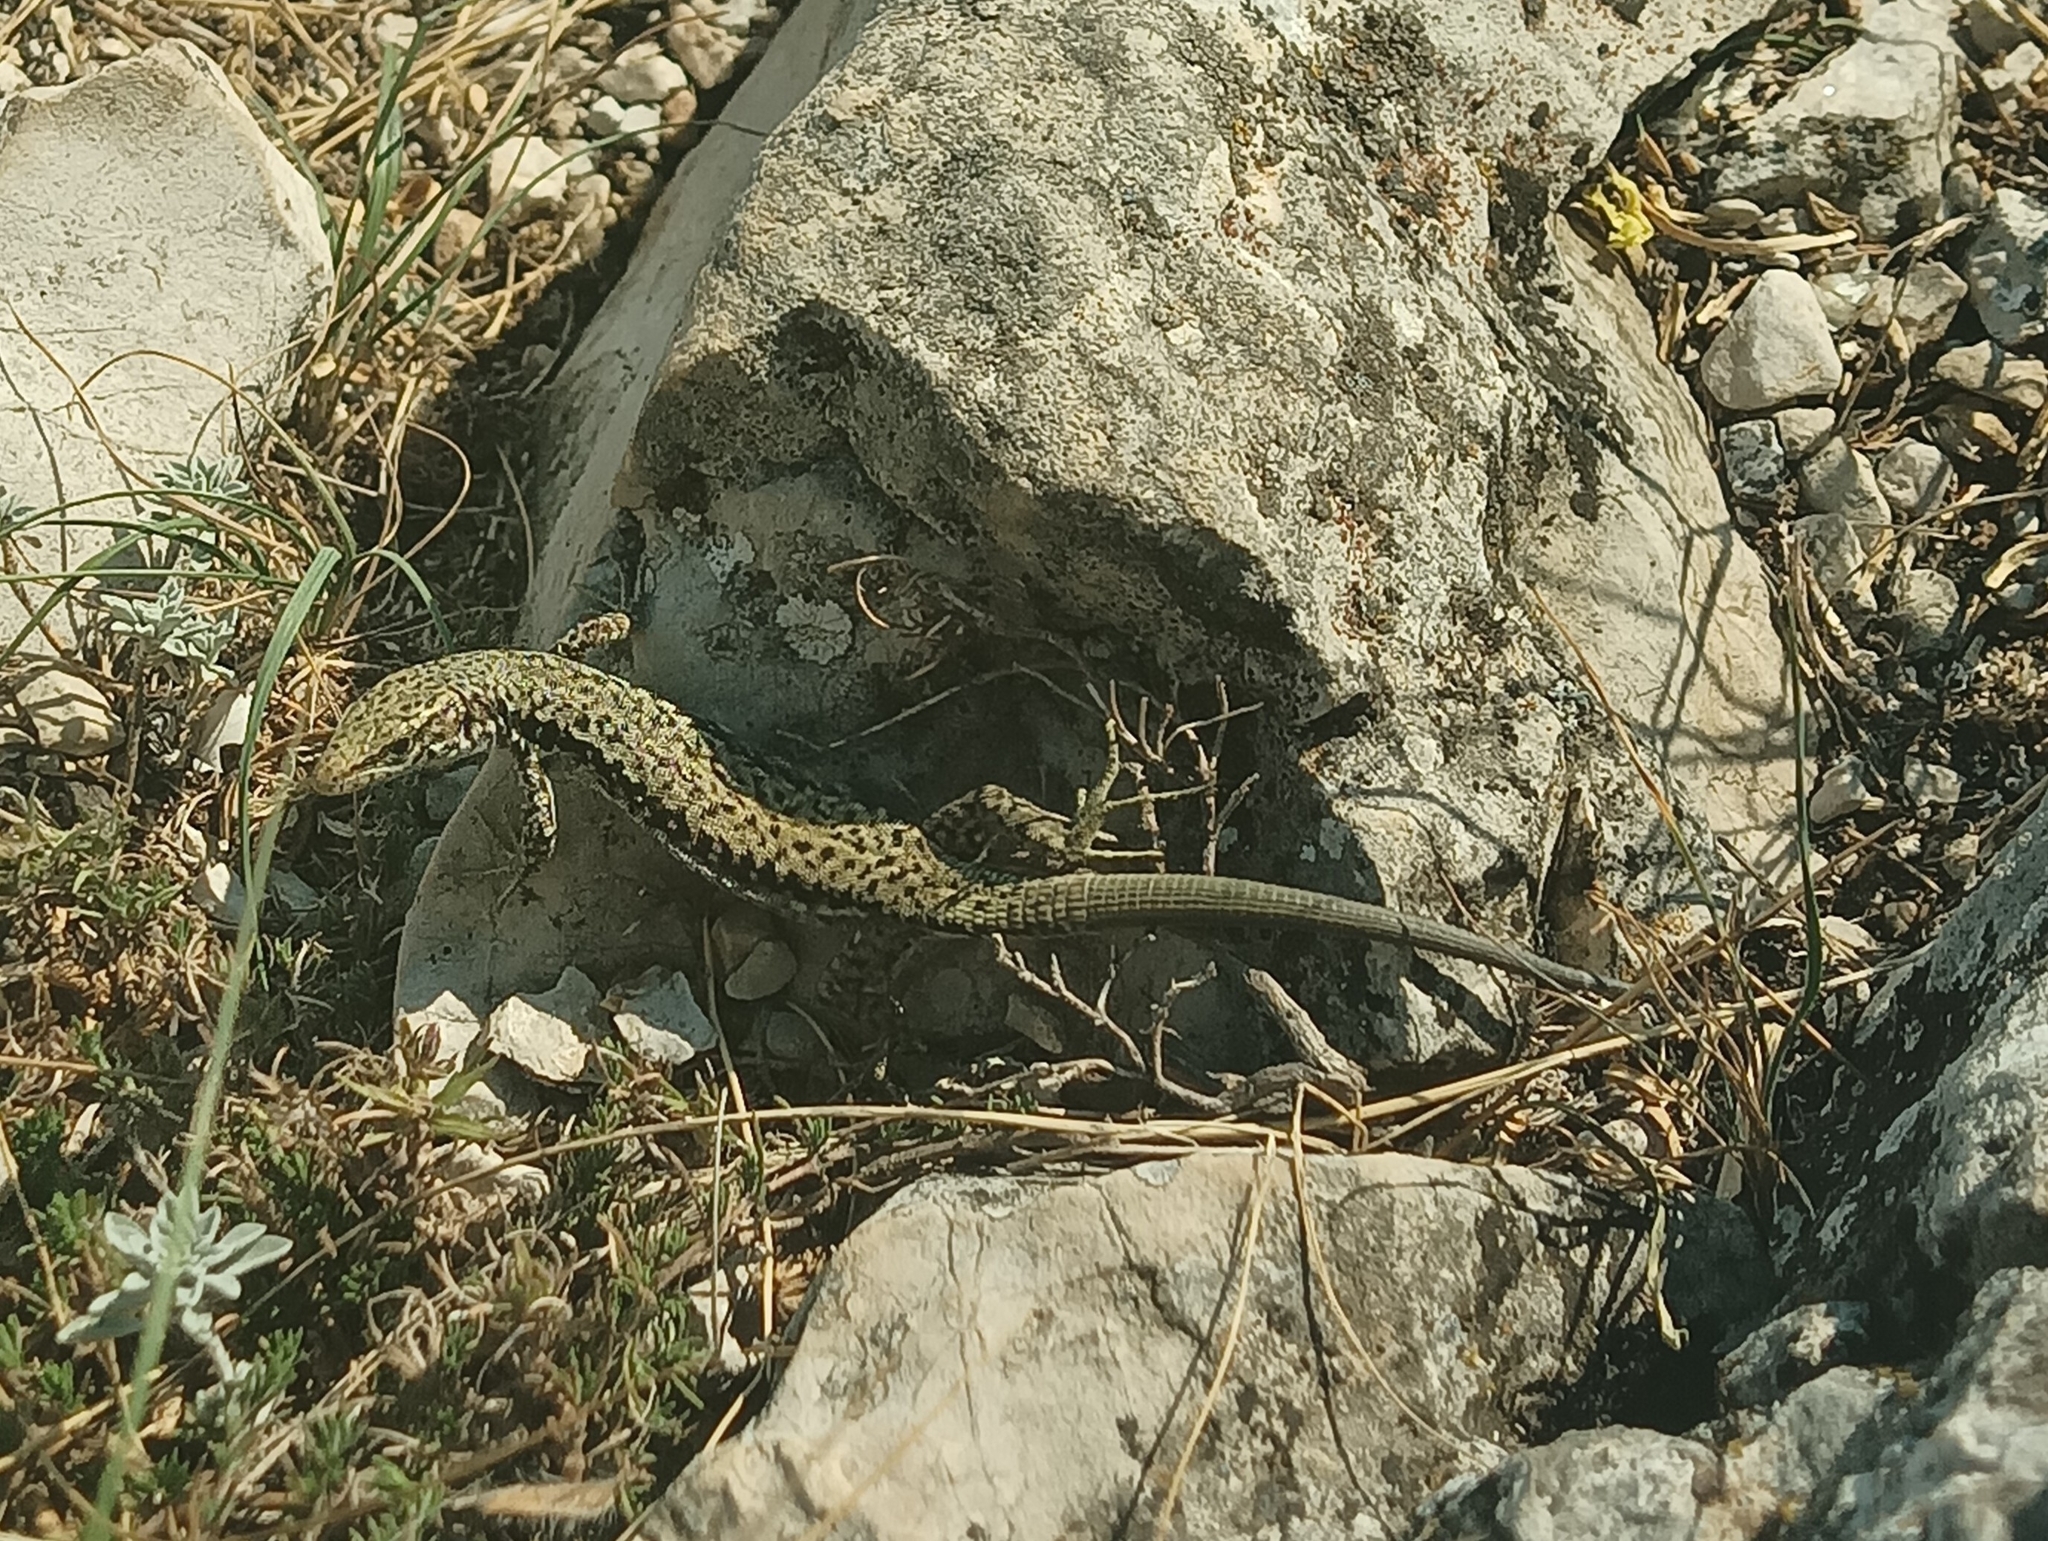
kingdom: Animalia
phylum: Chordata
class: Squamata
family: Lacertidae
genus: Darevskia
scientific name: Darevskia lindholmi
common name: Crimean rock lizard
